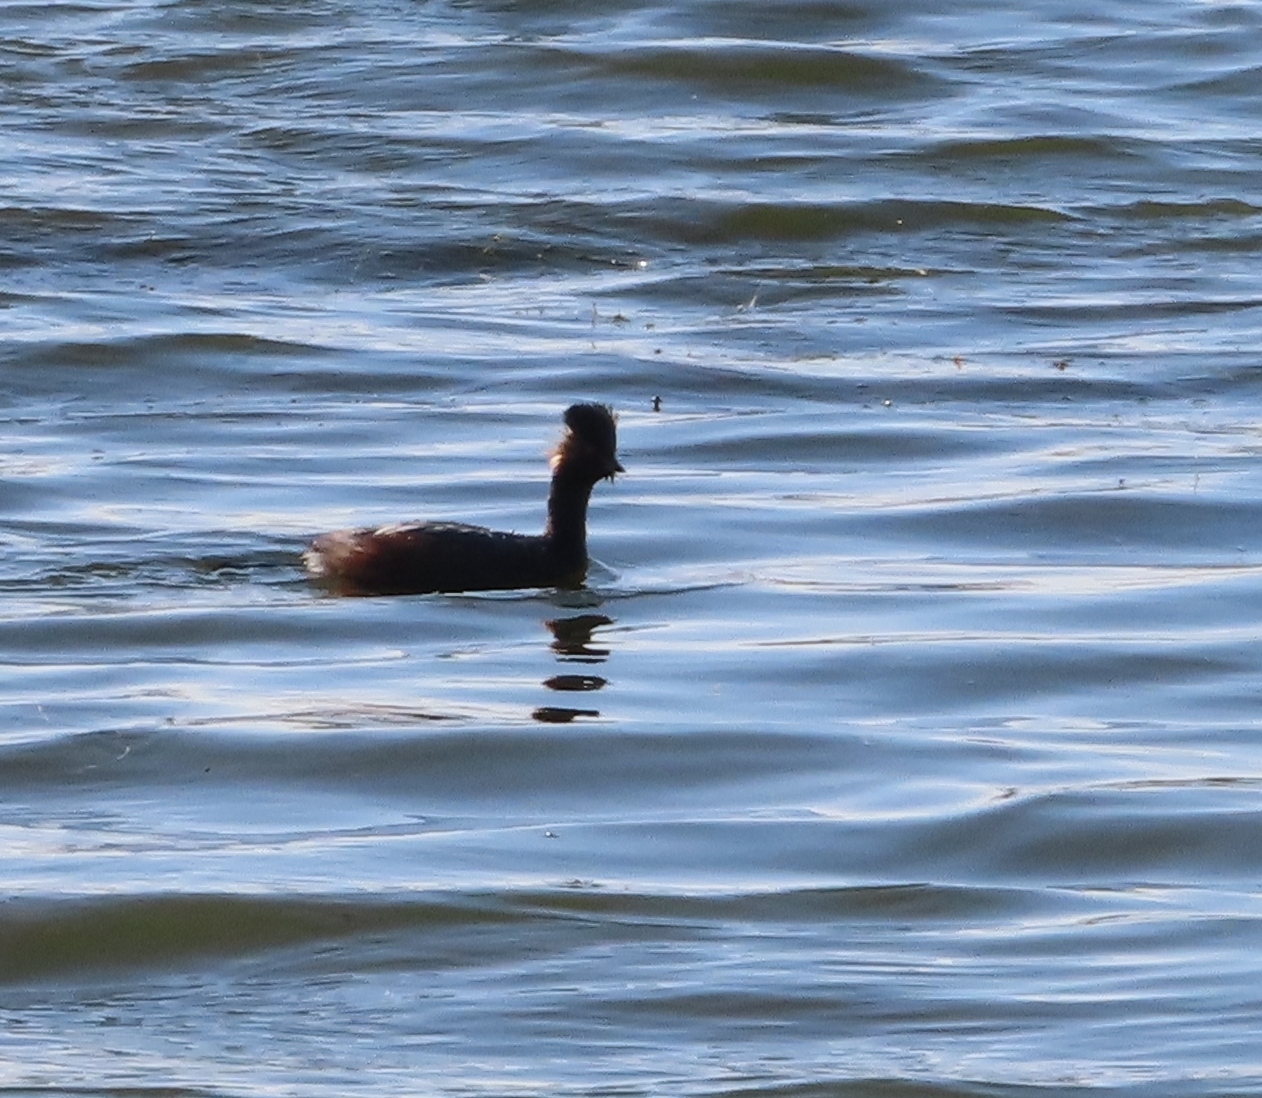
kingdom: Animalia
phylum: Chordata
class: Aves
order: Podicipediformes
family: Podicipedidae
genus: Podiceps
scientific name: Podiceps nigricollis
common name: Black-necked grebe
